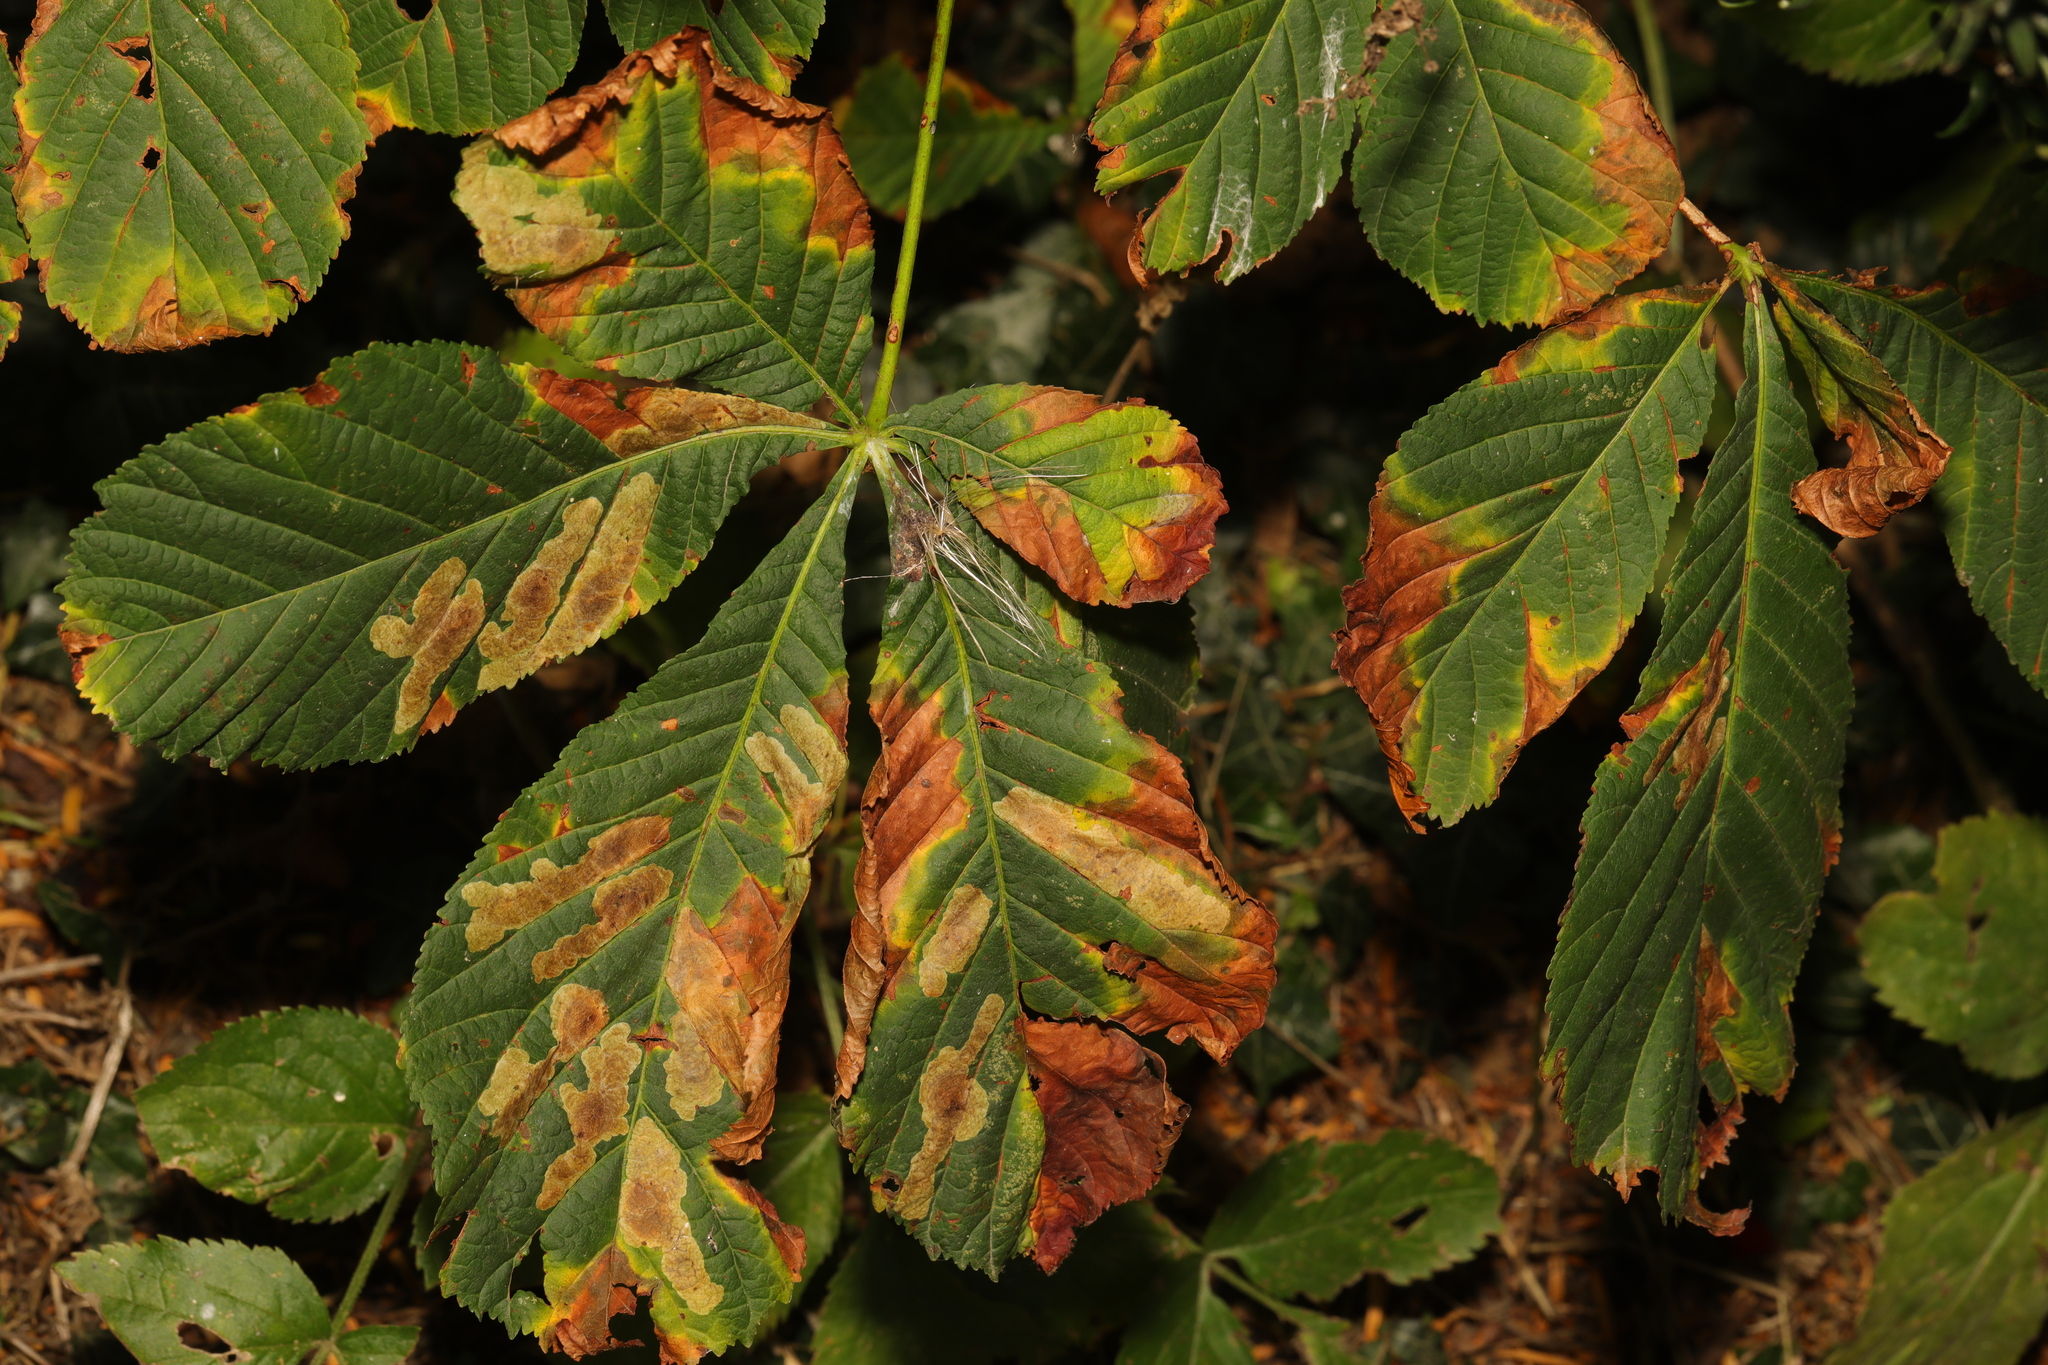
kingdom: Plantae
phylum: Tracheophyta
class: Magnoliopsida
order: Sapindales
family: Sapindaceae
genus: Aesculus
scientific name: Aesculus hippocastanum
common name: Horse-chestnut
